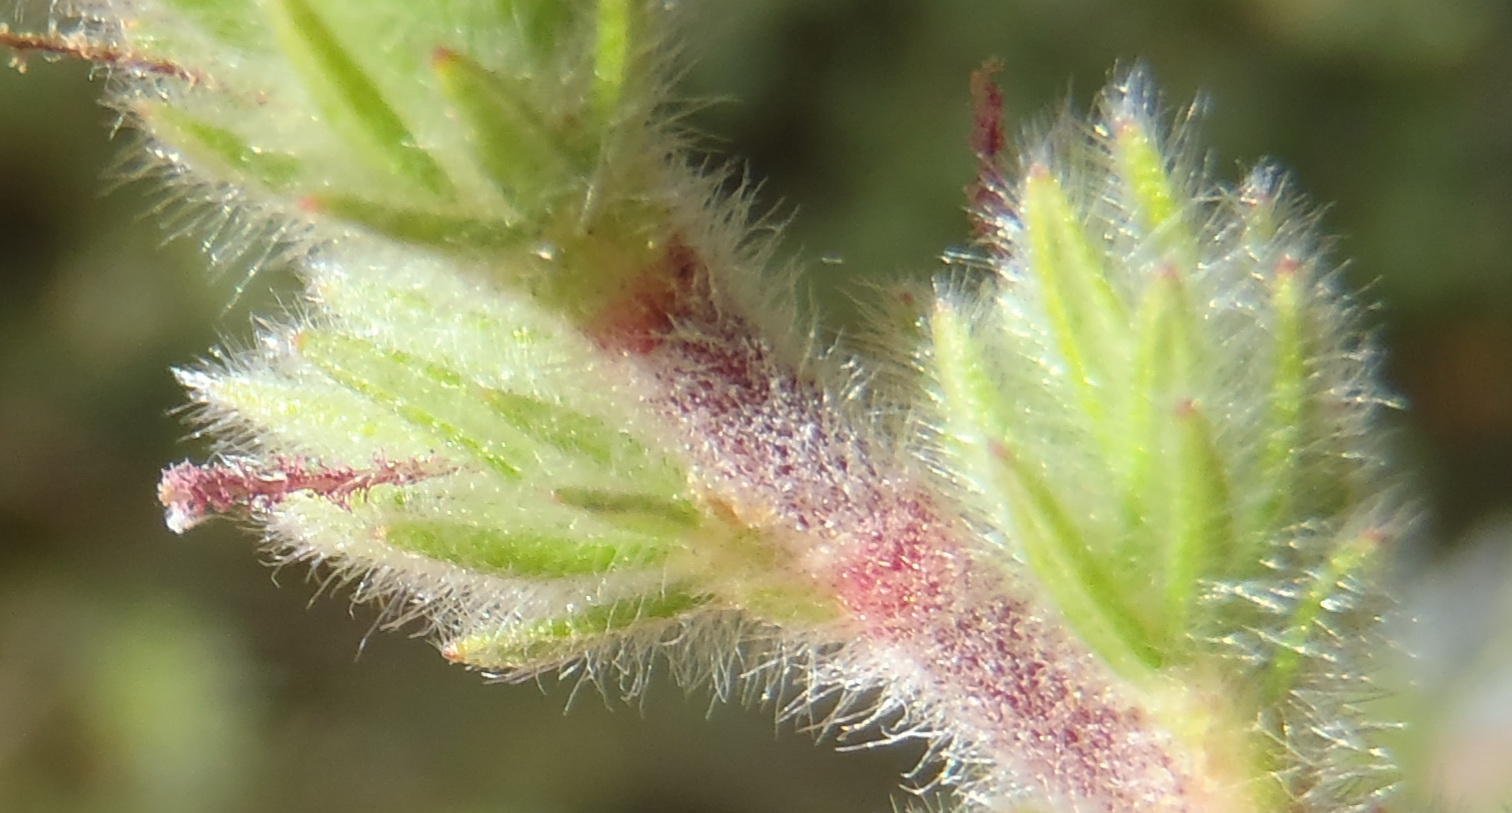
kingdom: Plantae
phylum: Tracheophyta
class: Magnoliopsida
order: Rosales
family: Rosaceae
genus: Cliffortia
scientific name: Cliffortia eriocephalina
